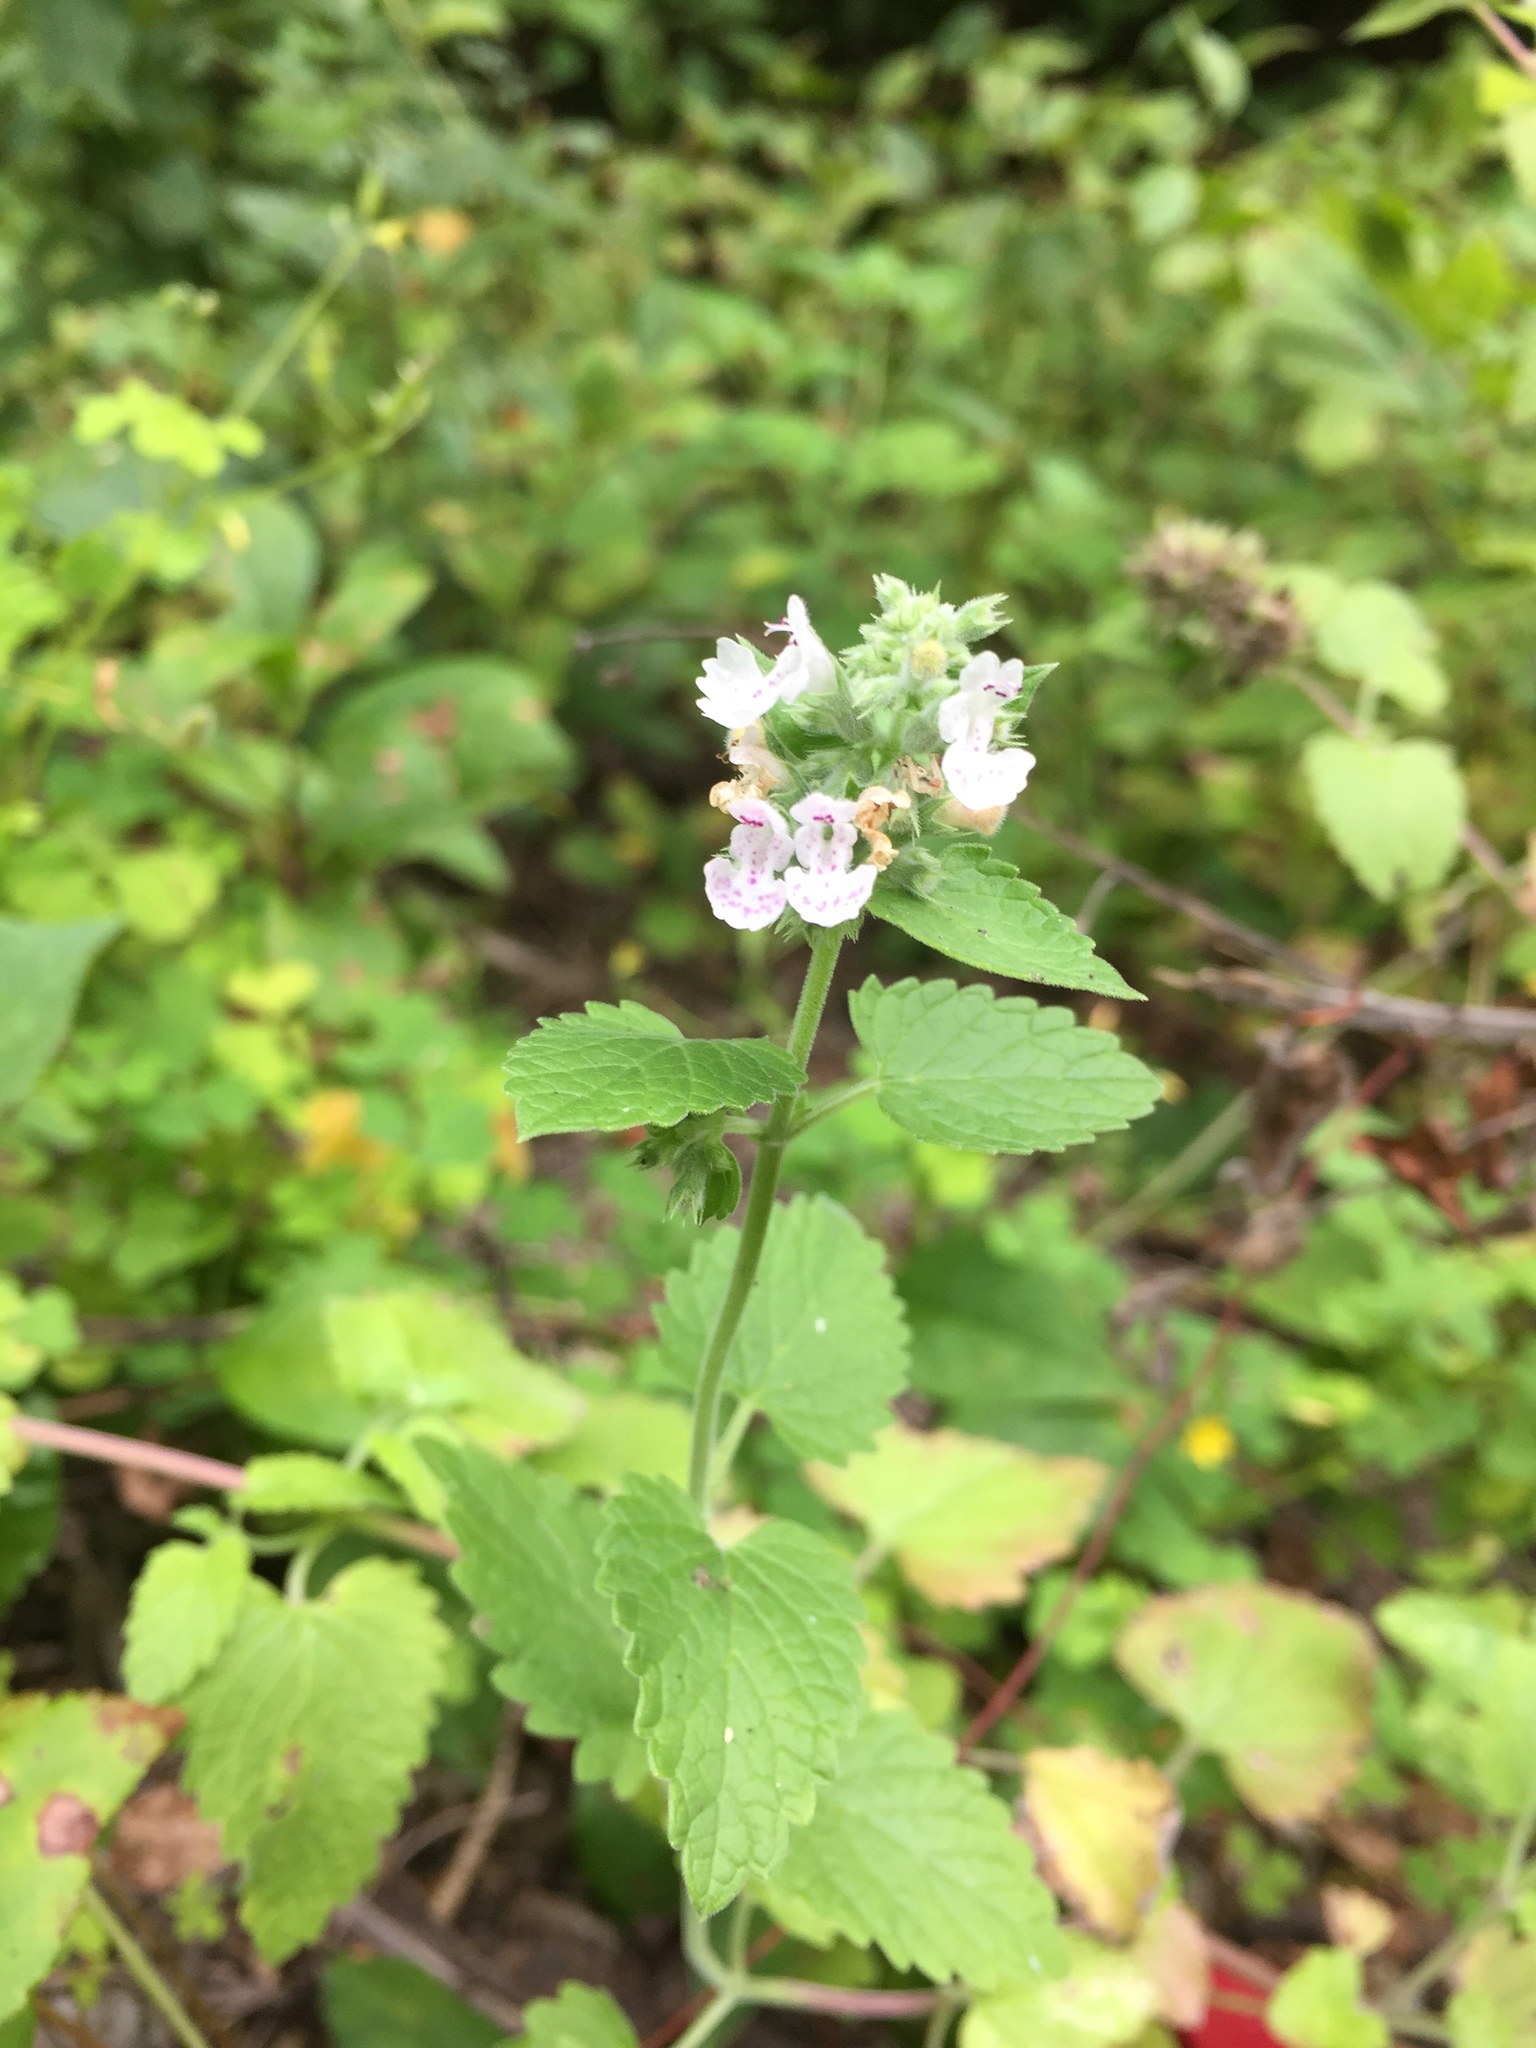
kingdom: Plantae
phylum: Tracheophyta
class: Magnoliopsida
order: Lamiales
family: Lamiaceae
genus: Nepeta
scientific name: Nepeta cataria
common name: Catnip
